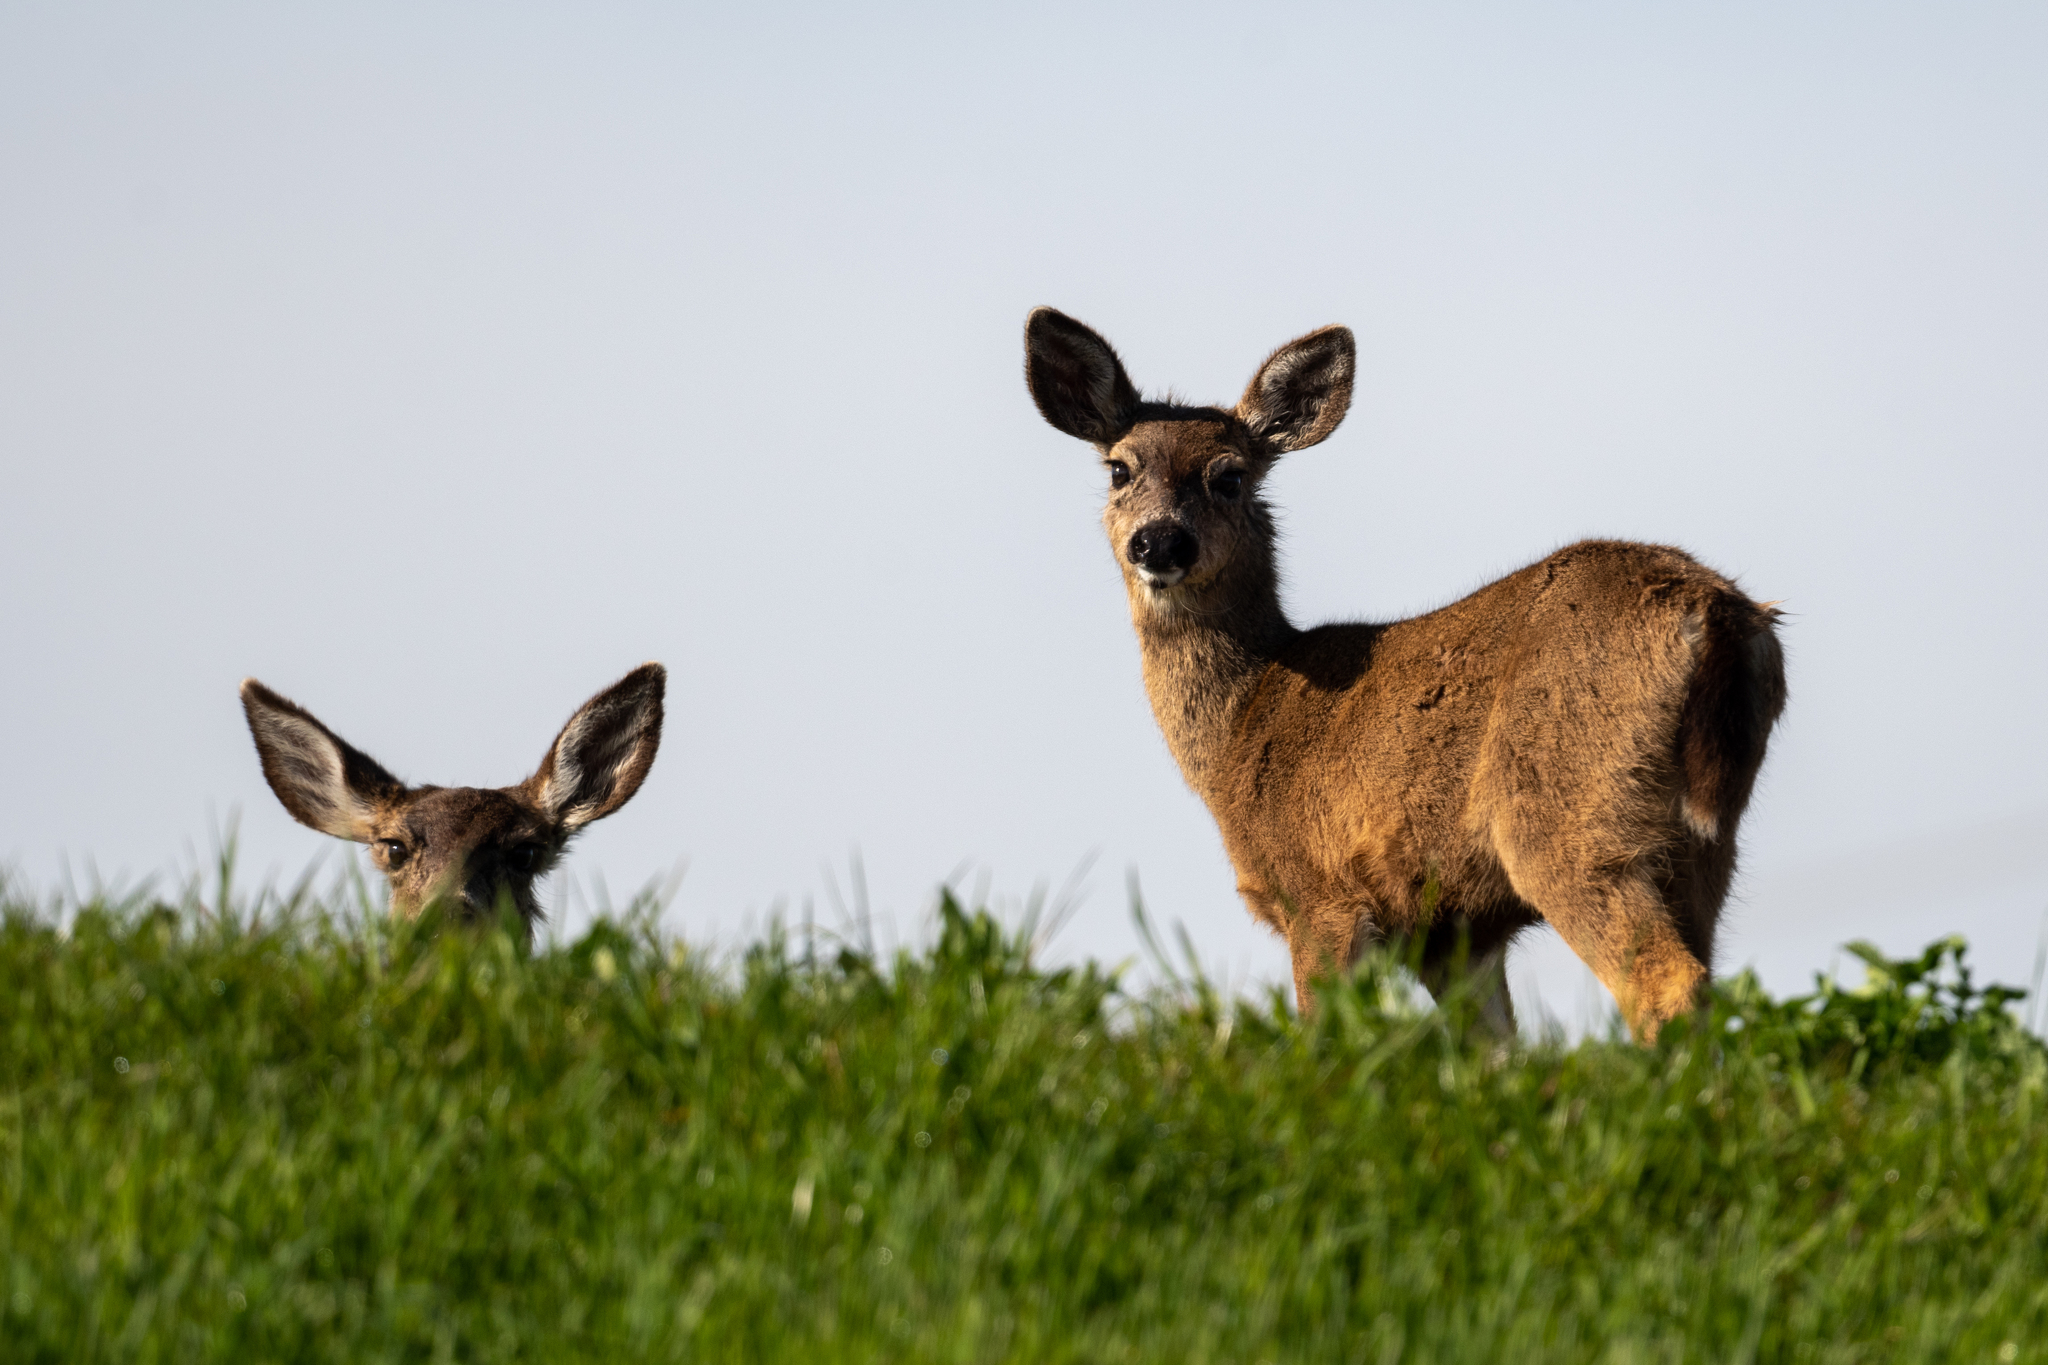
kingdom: Animalia
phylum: Chordata
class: Mammalia
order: Artiodactyla
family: Cervidae
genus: Odocoileus
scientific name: Odocoileus hemionus
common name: Mule deer
